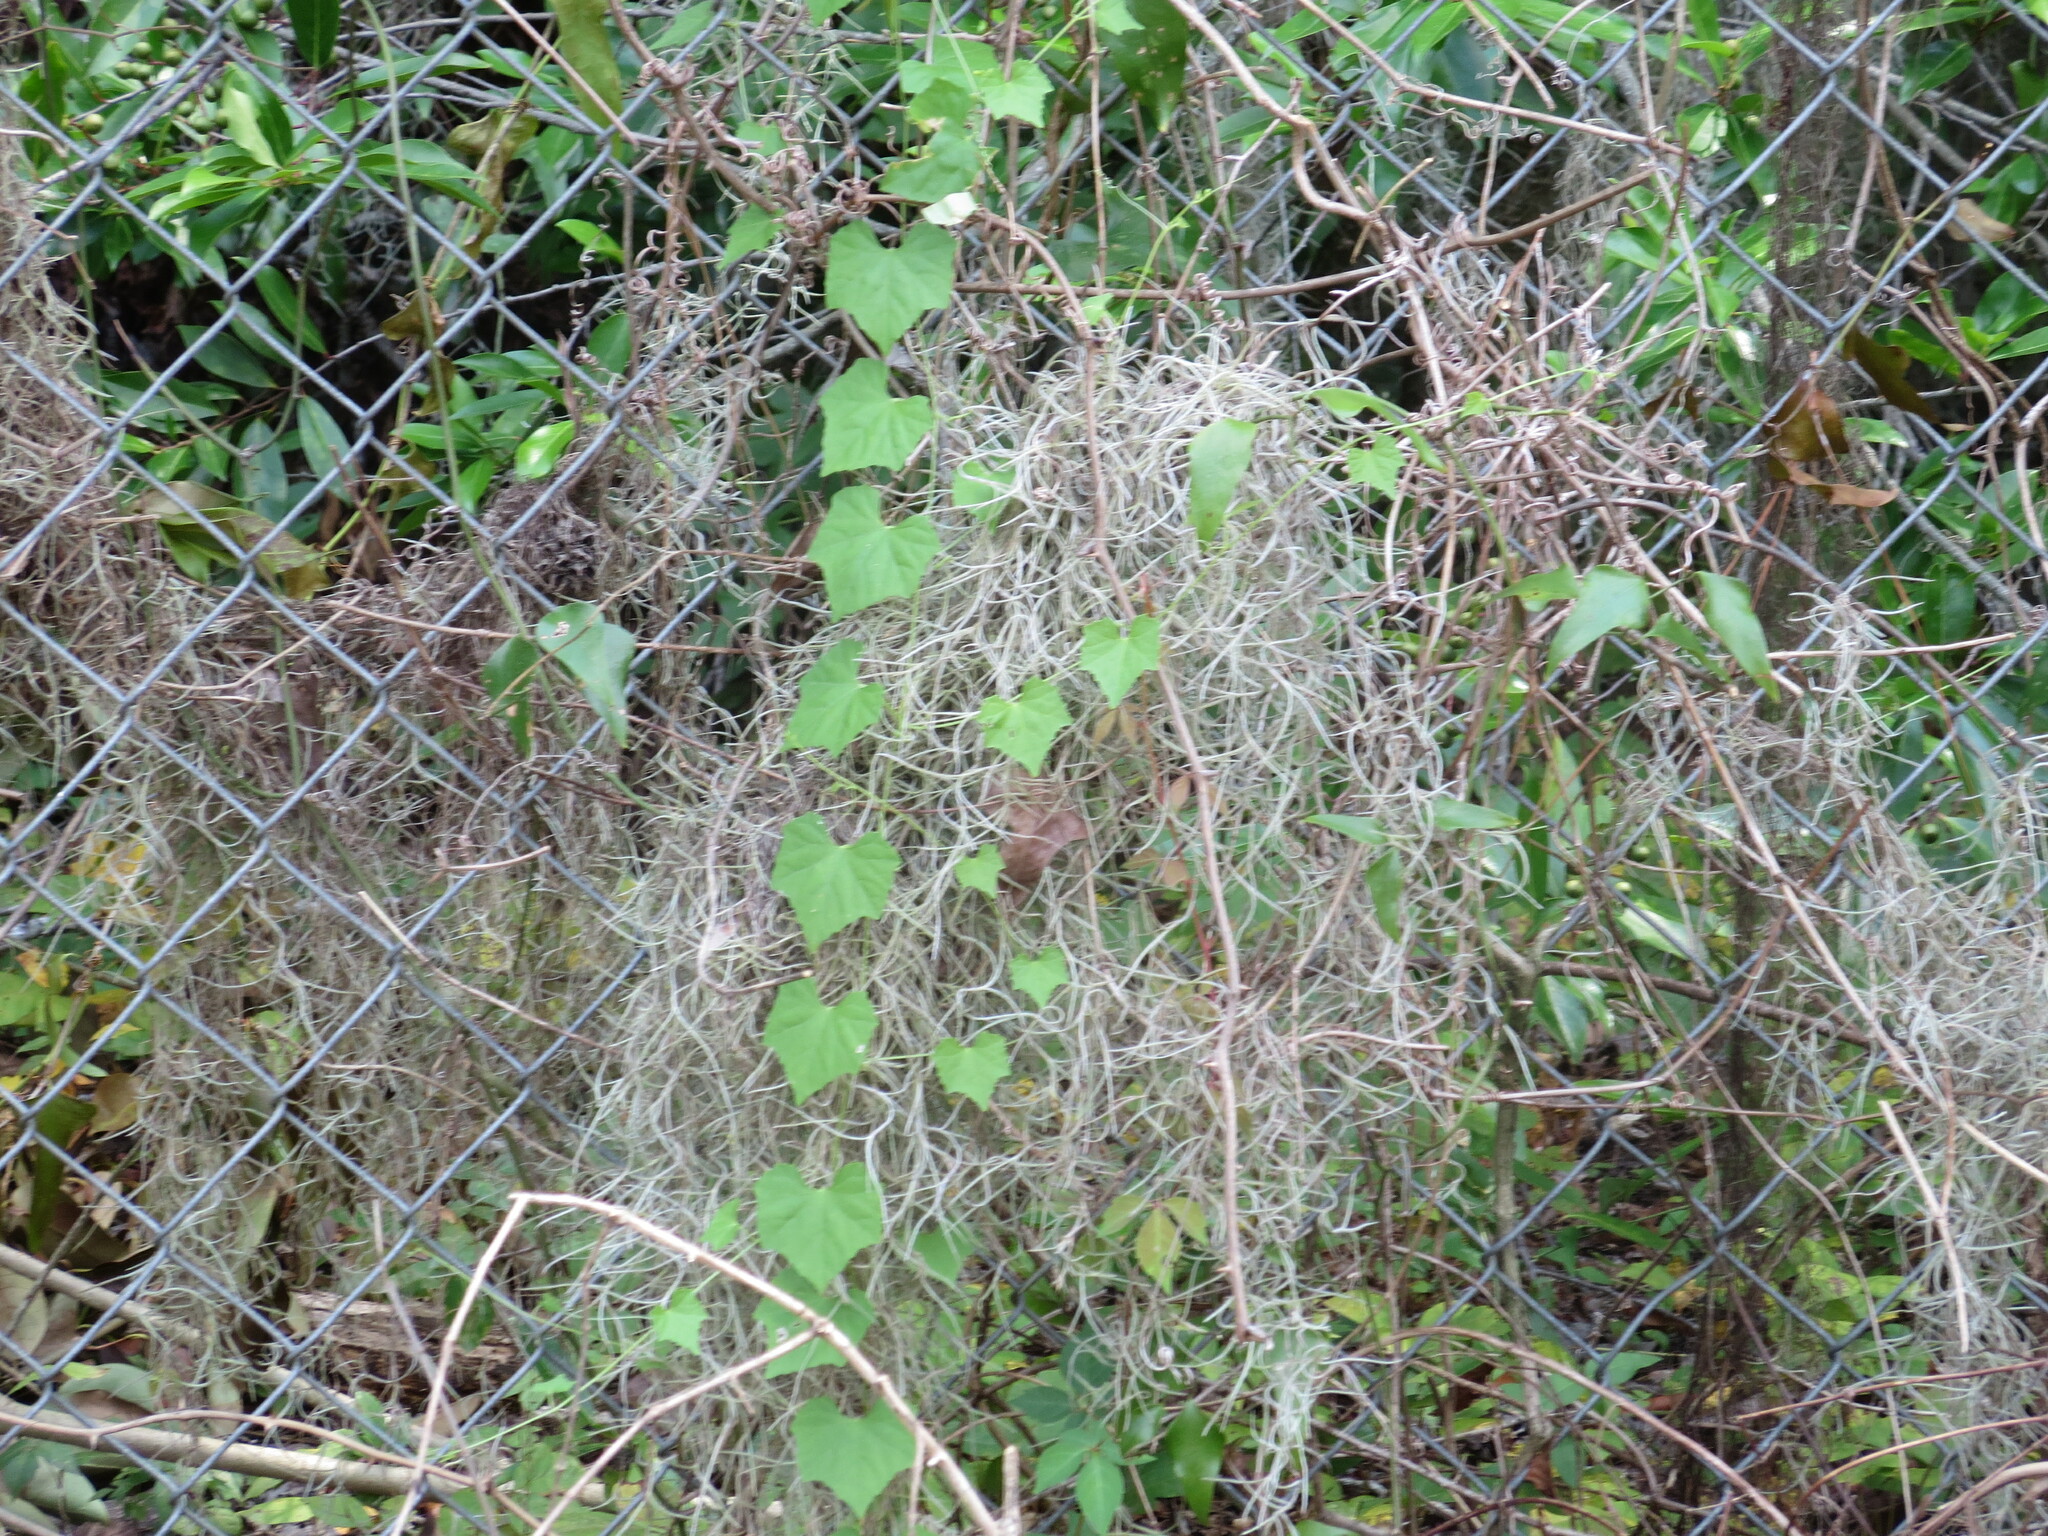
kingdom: Plantae
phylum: Tracheophyta
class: Magnoliopsida
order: Cucurbitales
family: Cucurbitaceae
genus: Melothria
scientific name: Melothria pendula
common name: Creeping-cucumber
